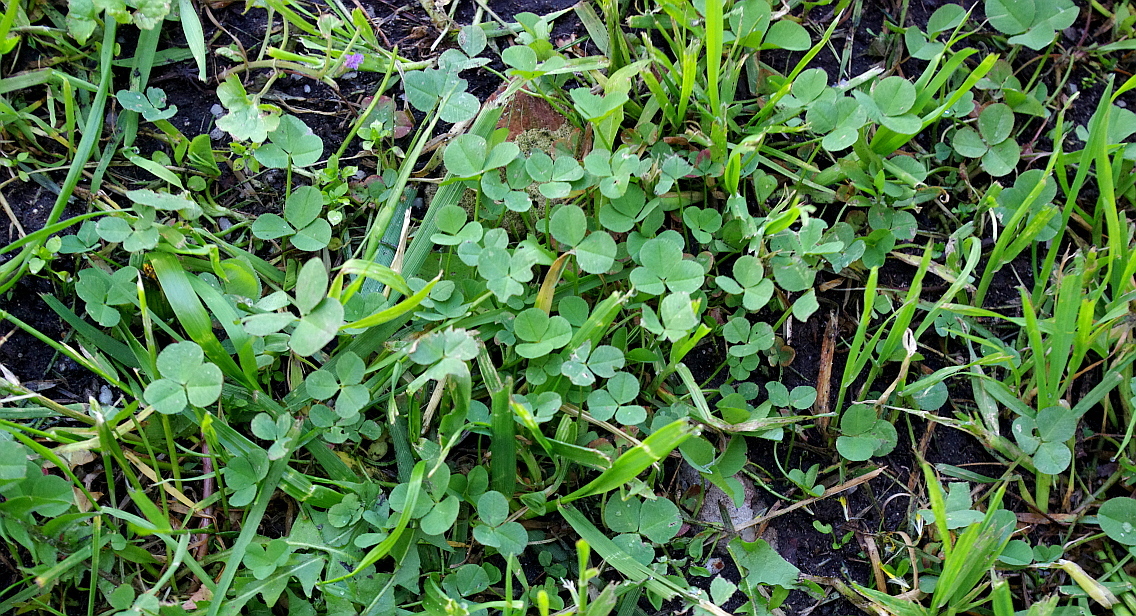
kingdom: Plantae
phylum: Tracheophyta
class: Magnoliopsida
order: Fabales
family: Fabaceae
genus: Trifolium
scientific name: Trifolium repens
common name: White clover
